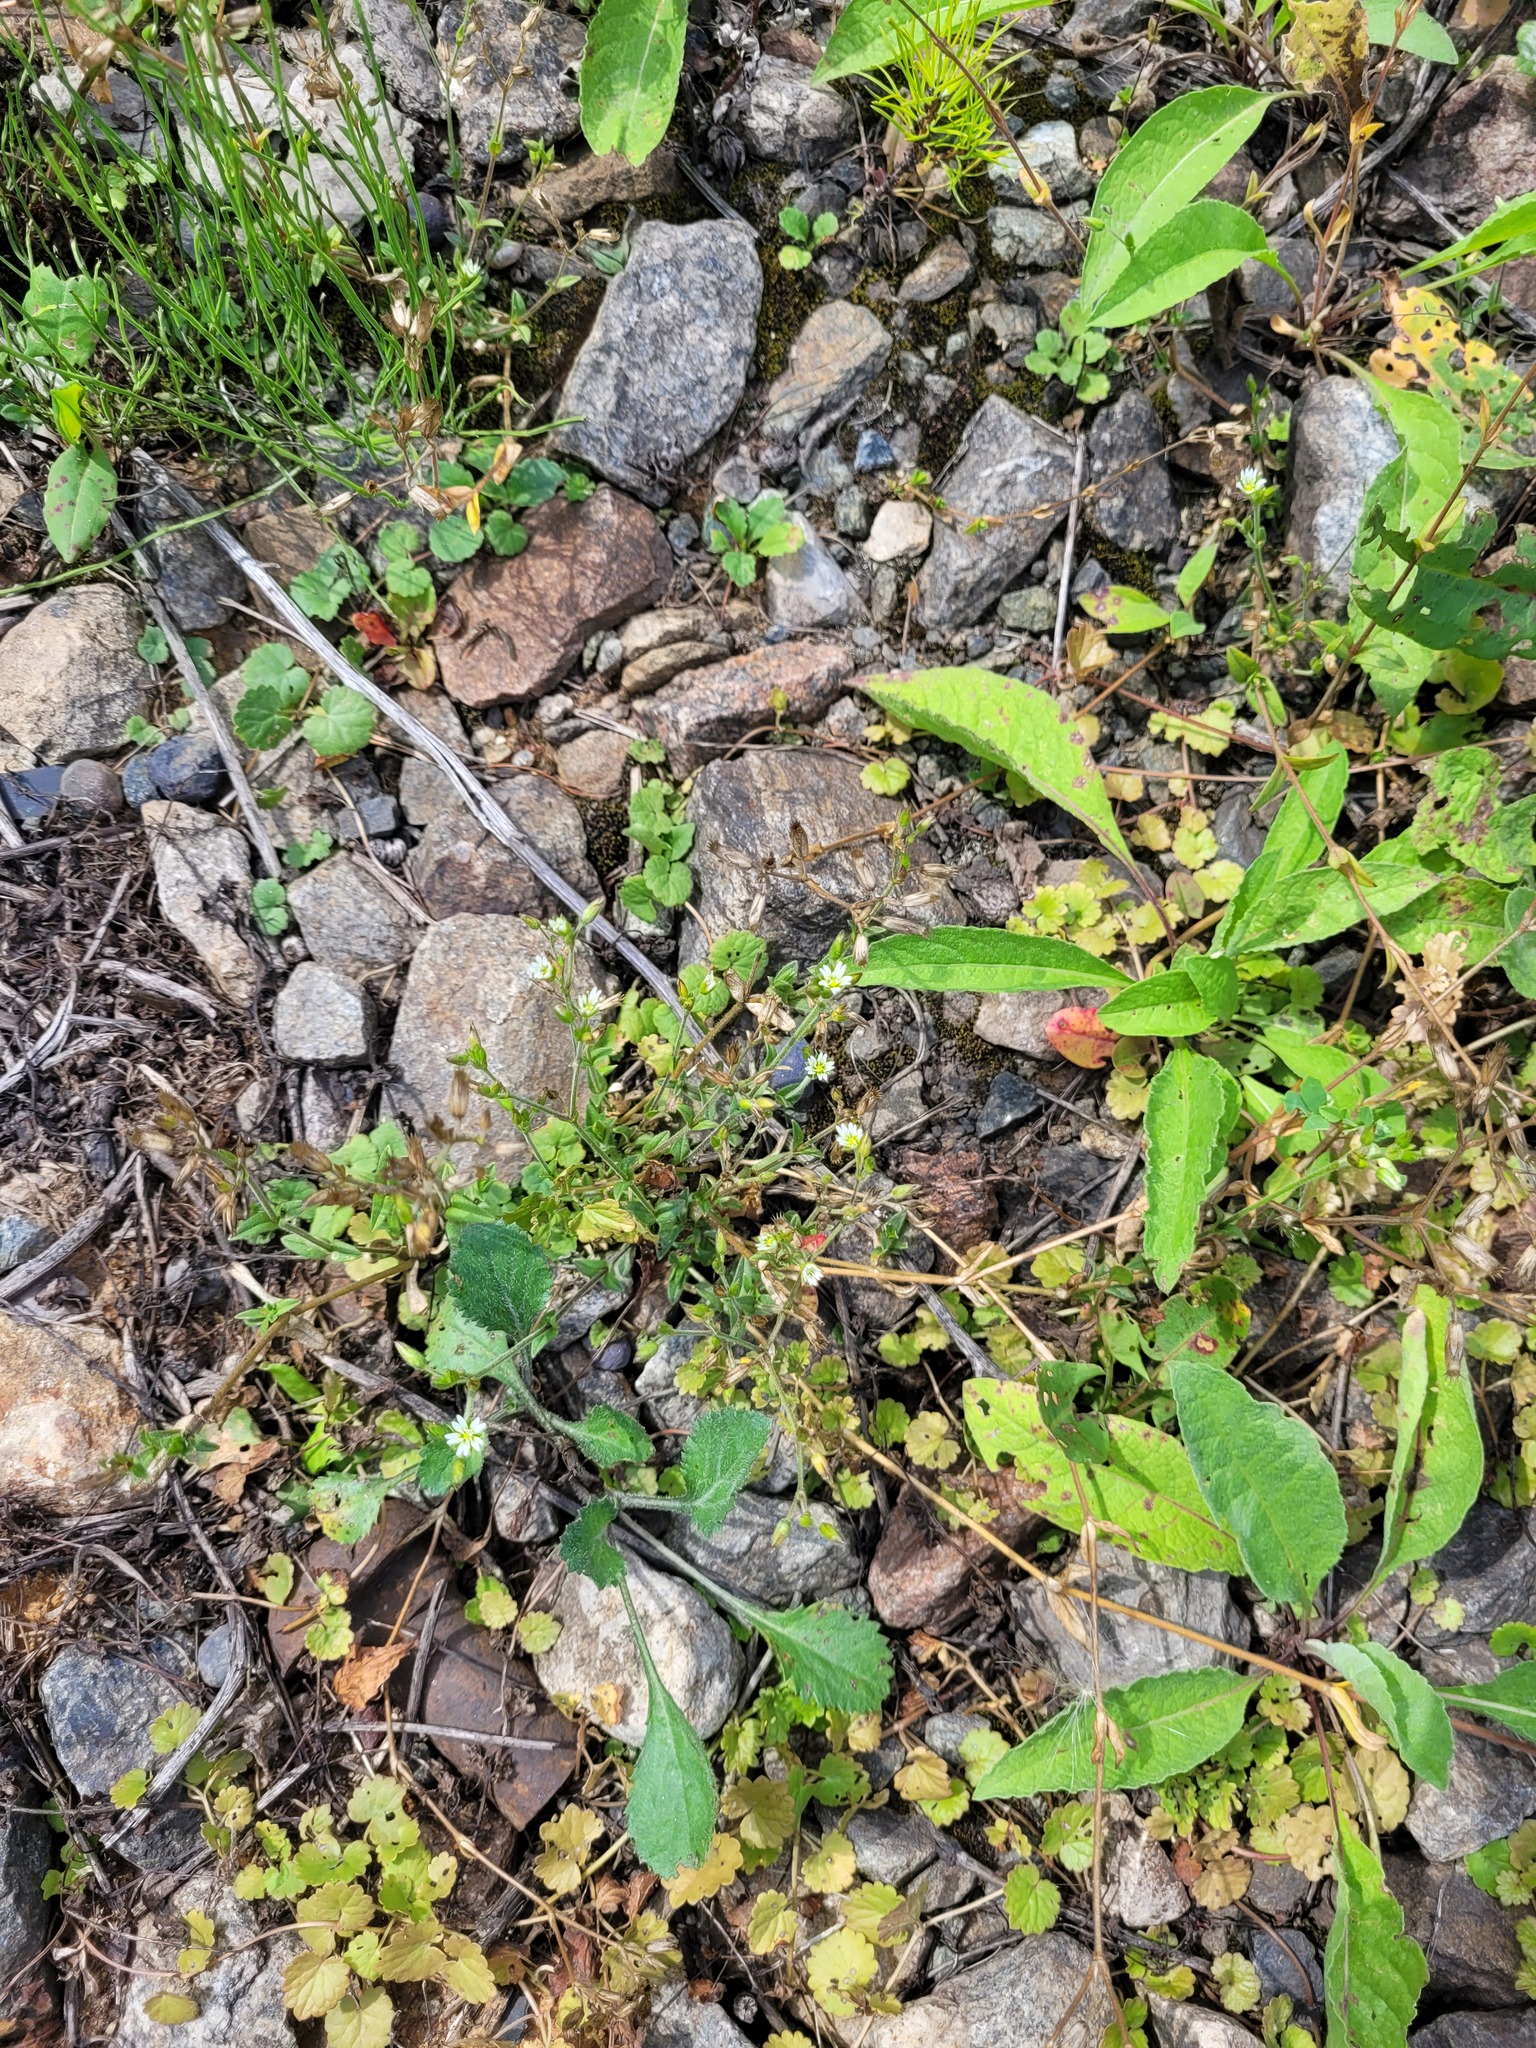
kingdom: Plantae
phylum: Tracheophyta
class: Magnoliopsida
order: Caryophyllales
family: Caryophyllaceae
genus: Cerastium
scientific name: Cerastium holosteoides
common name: Big chickweed
